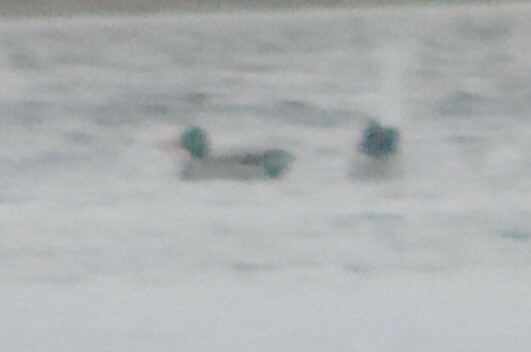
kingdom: Animalia
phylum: Chordata
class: Aves
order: Anseriformes
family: Anatidae
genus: Anas
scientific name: Anas platyrhynchos
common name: Mallard
